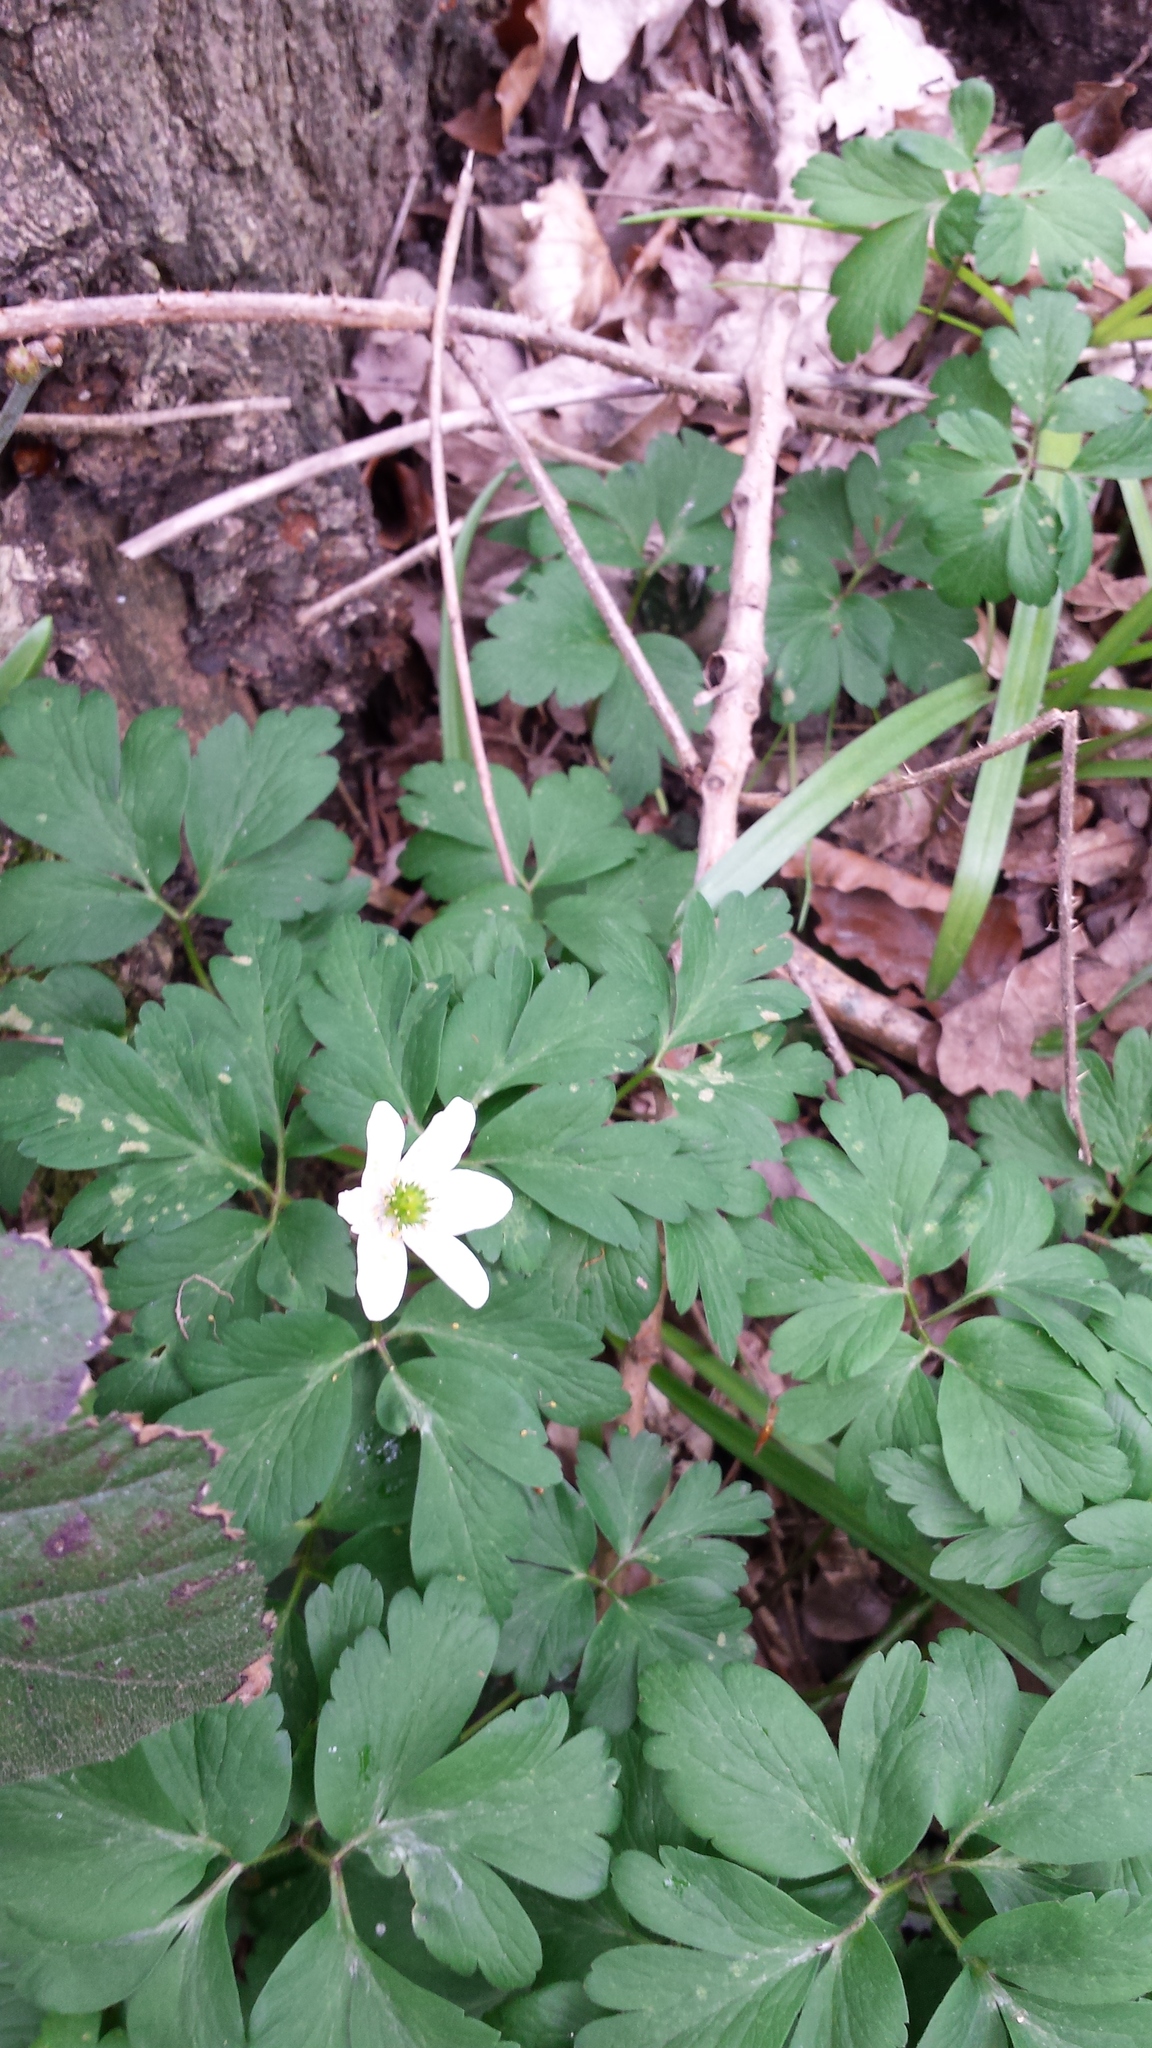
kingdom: Plantae
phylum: Tracheophyta
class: Magnoliopsida
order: Ranunculales
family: Ranunculaceae
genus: Anemone
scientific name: Anemone nemorosa
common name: Wood anemone
